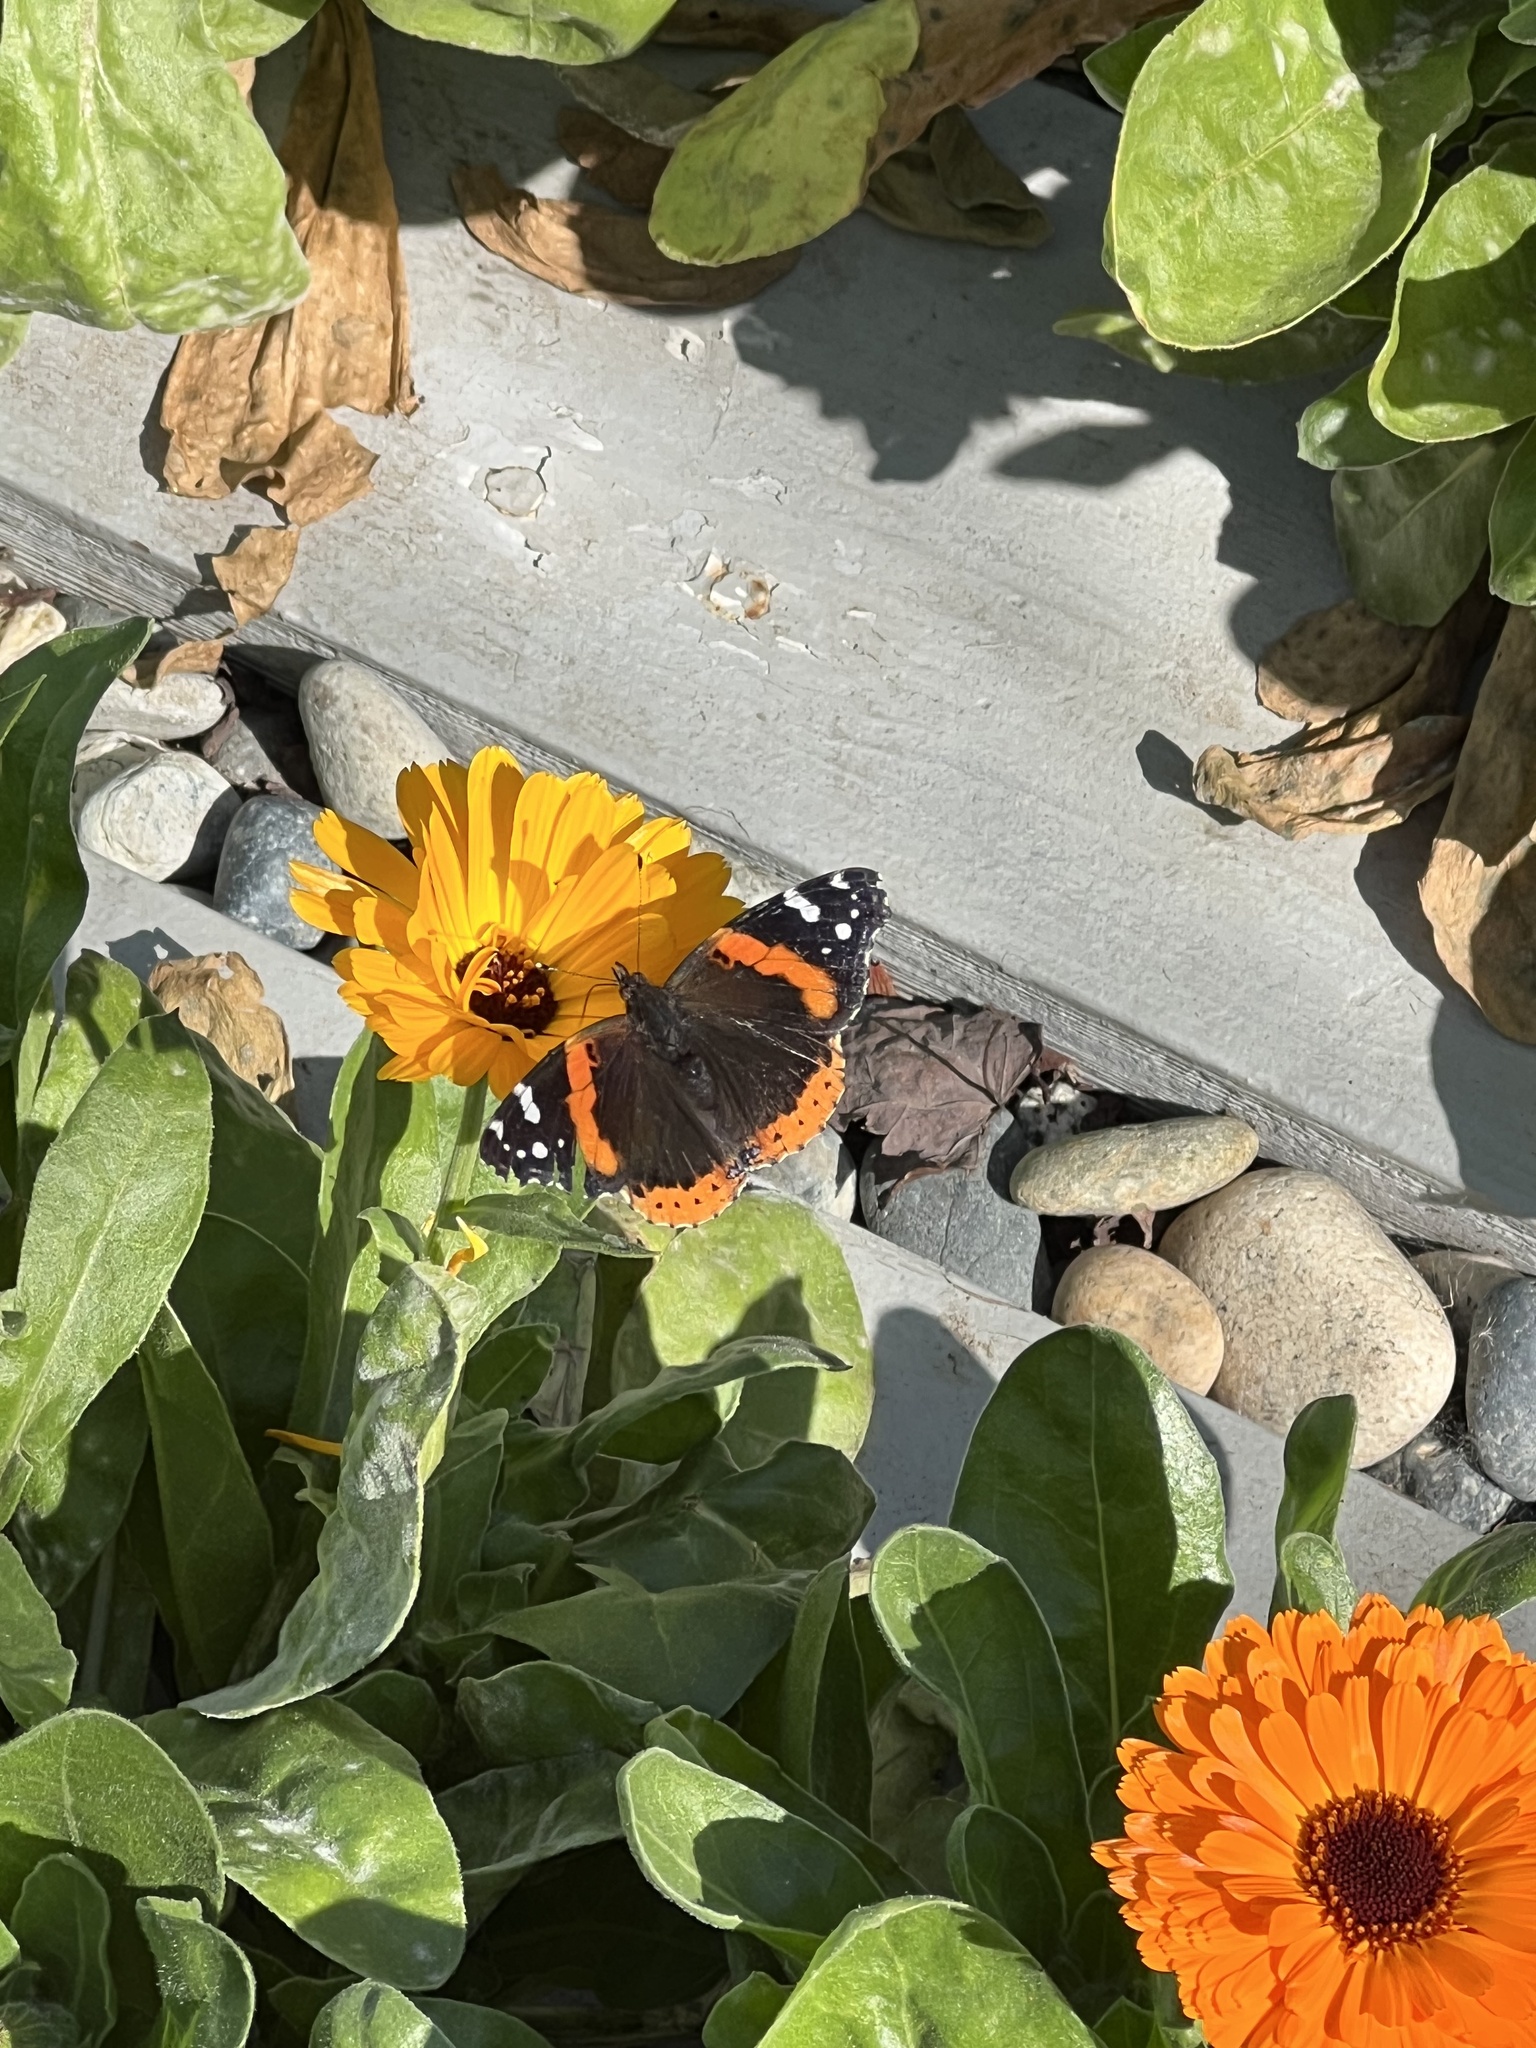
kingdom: Animalia
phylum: Arthropoda
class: Insecta
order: Lepidoptera
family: Nymphalidae
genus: Vanessa
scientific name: Vanessa atalanta
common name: Red admiral
